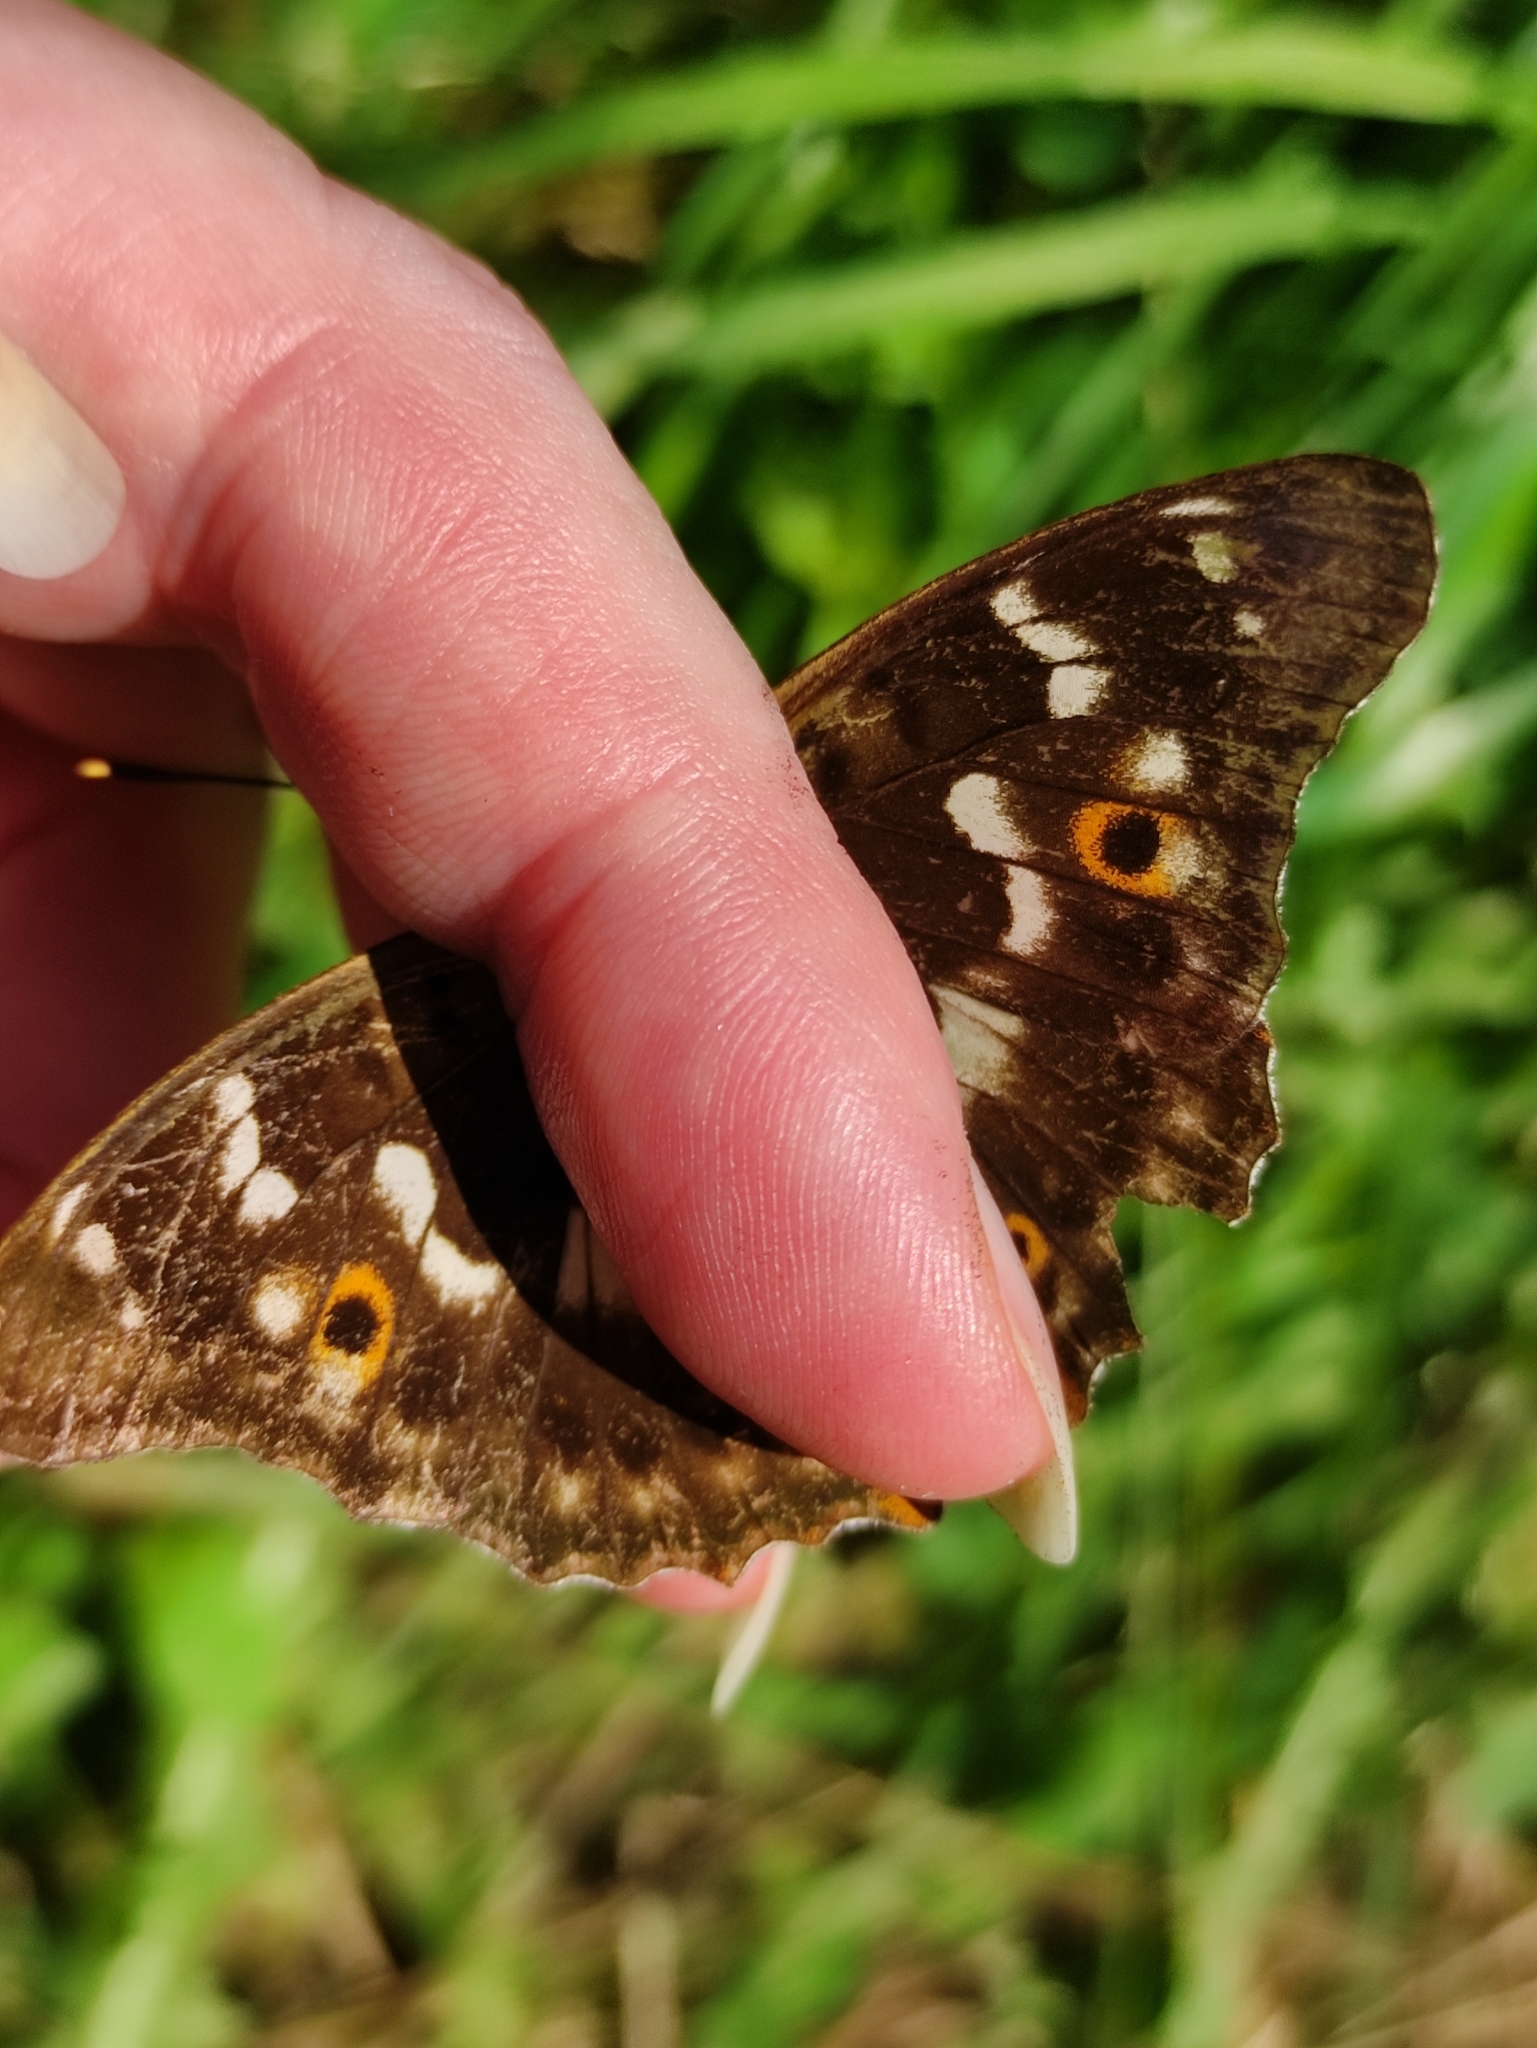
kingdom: Animalia
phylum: Arthropoda
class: Insecta
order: Lepidoptera
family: Nymphalidae
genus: Apatura
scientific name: Apatura ilia
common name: Lesser purple emperor
